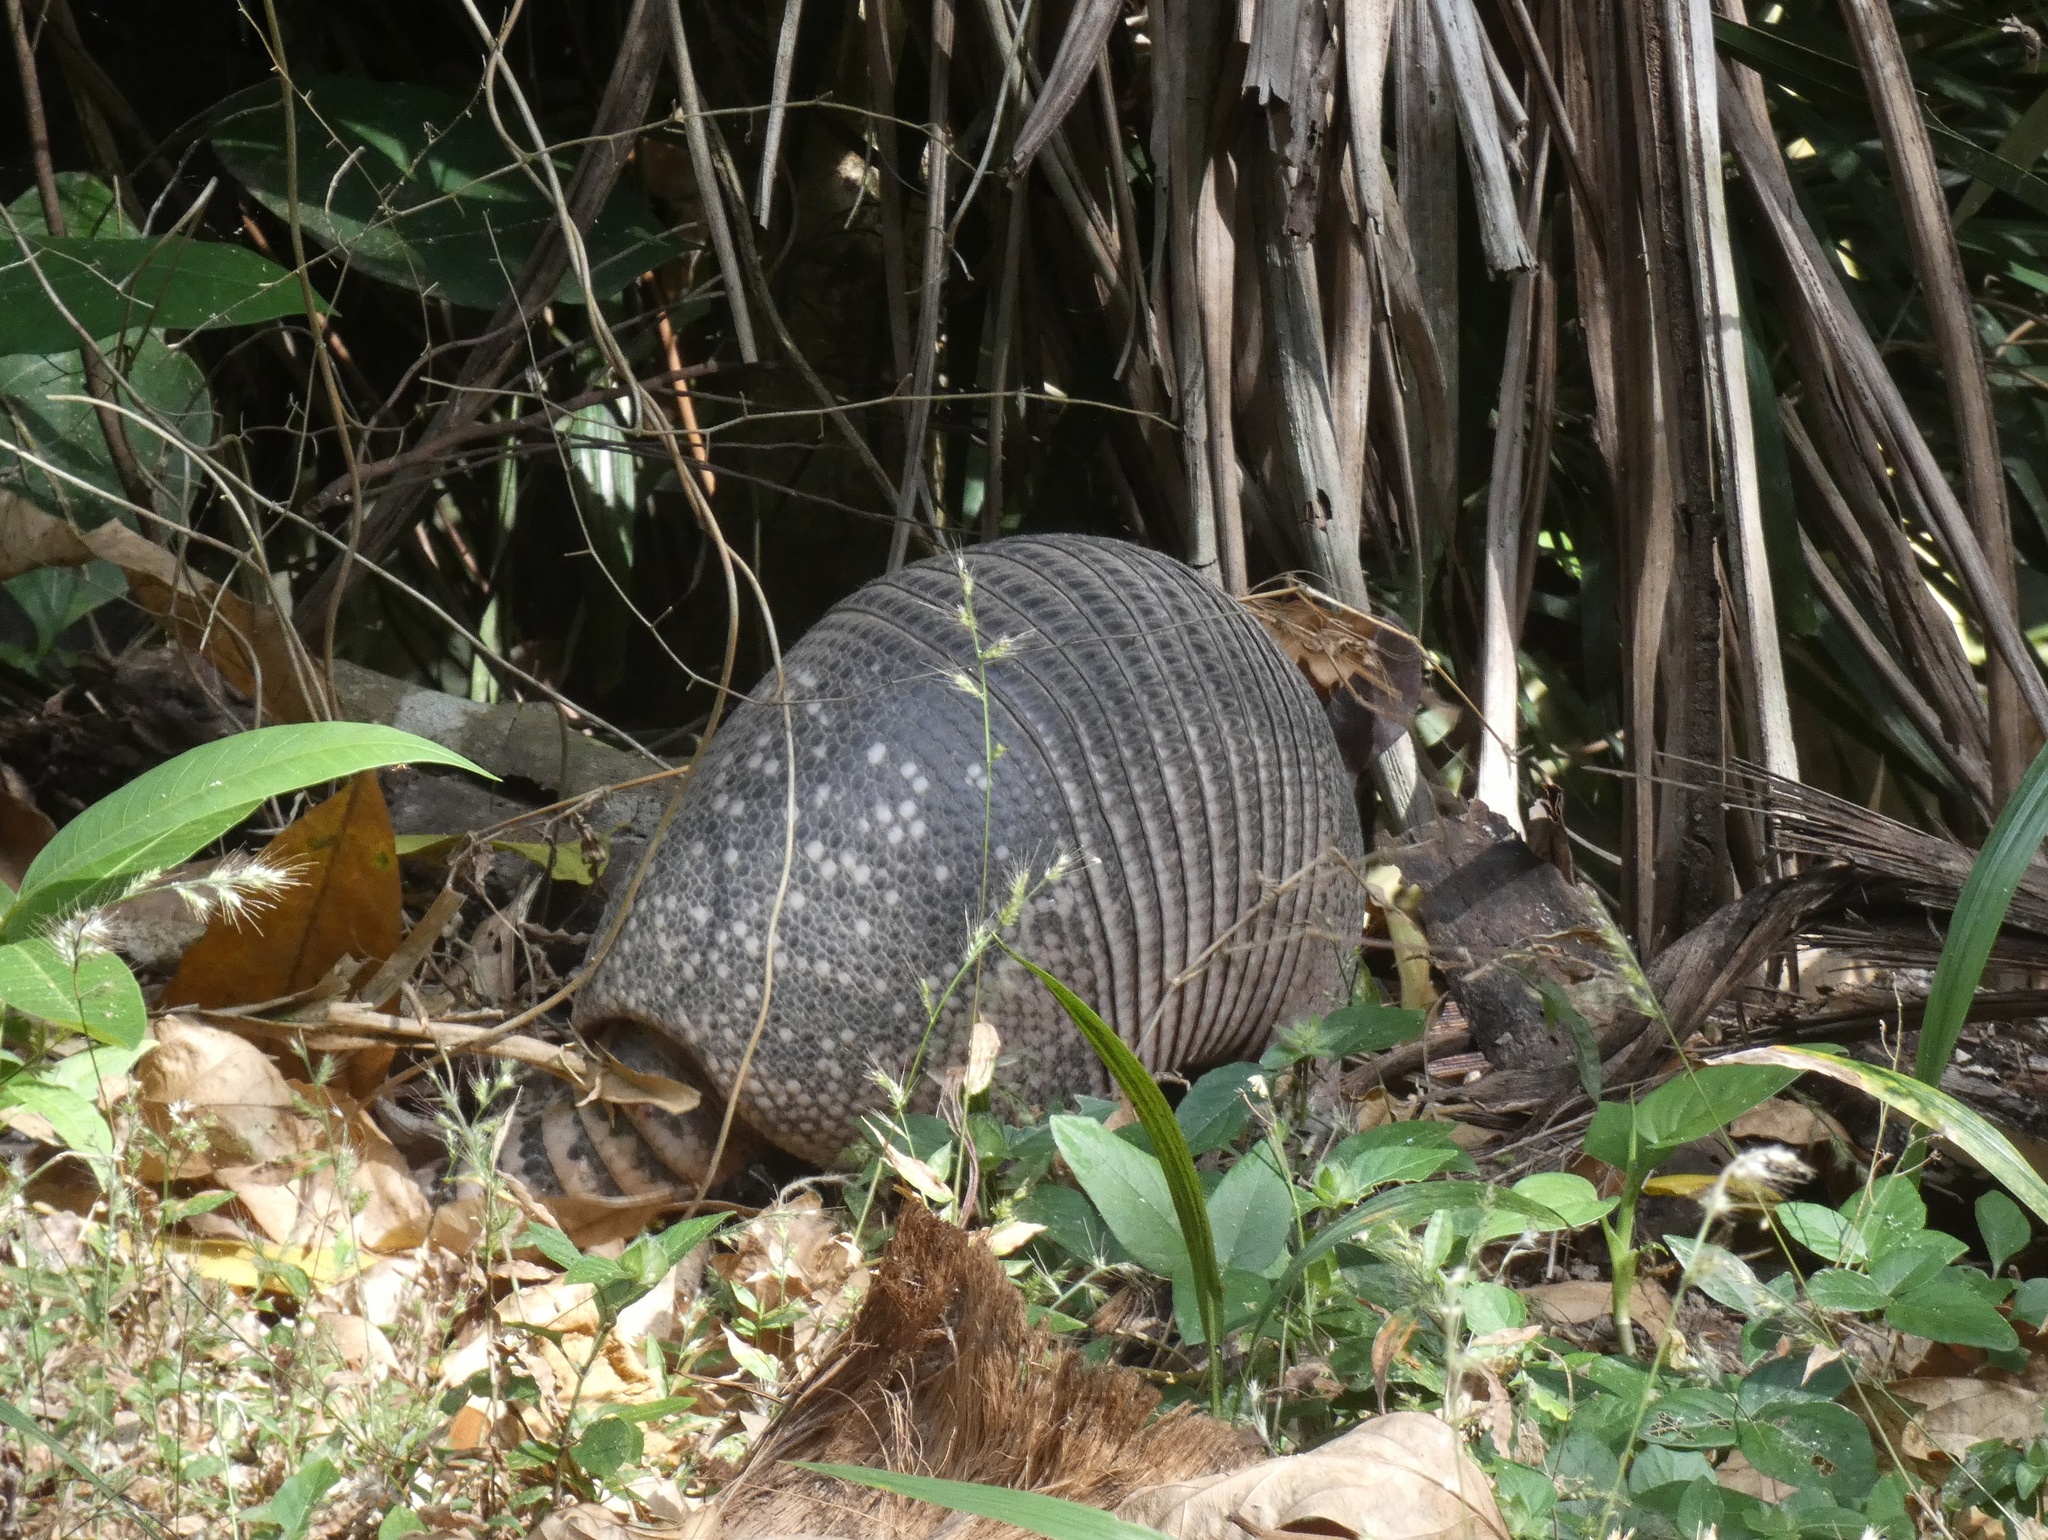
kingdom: Animalia
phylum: Chordata
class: Mammalia
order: Cingulata
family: Dasypodidae
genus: Dasypus
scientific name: Dasypus novemcinctus
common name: Nine-banded armadillo
